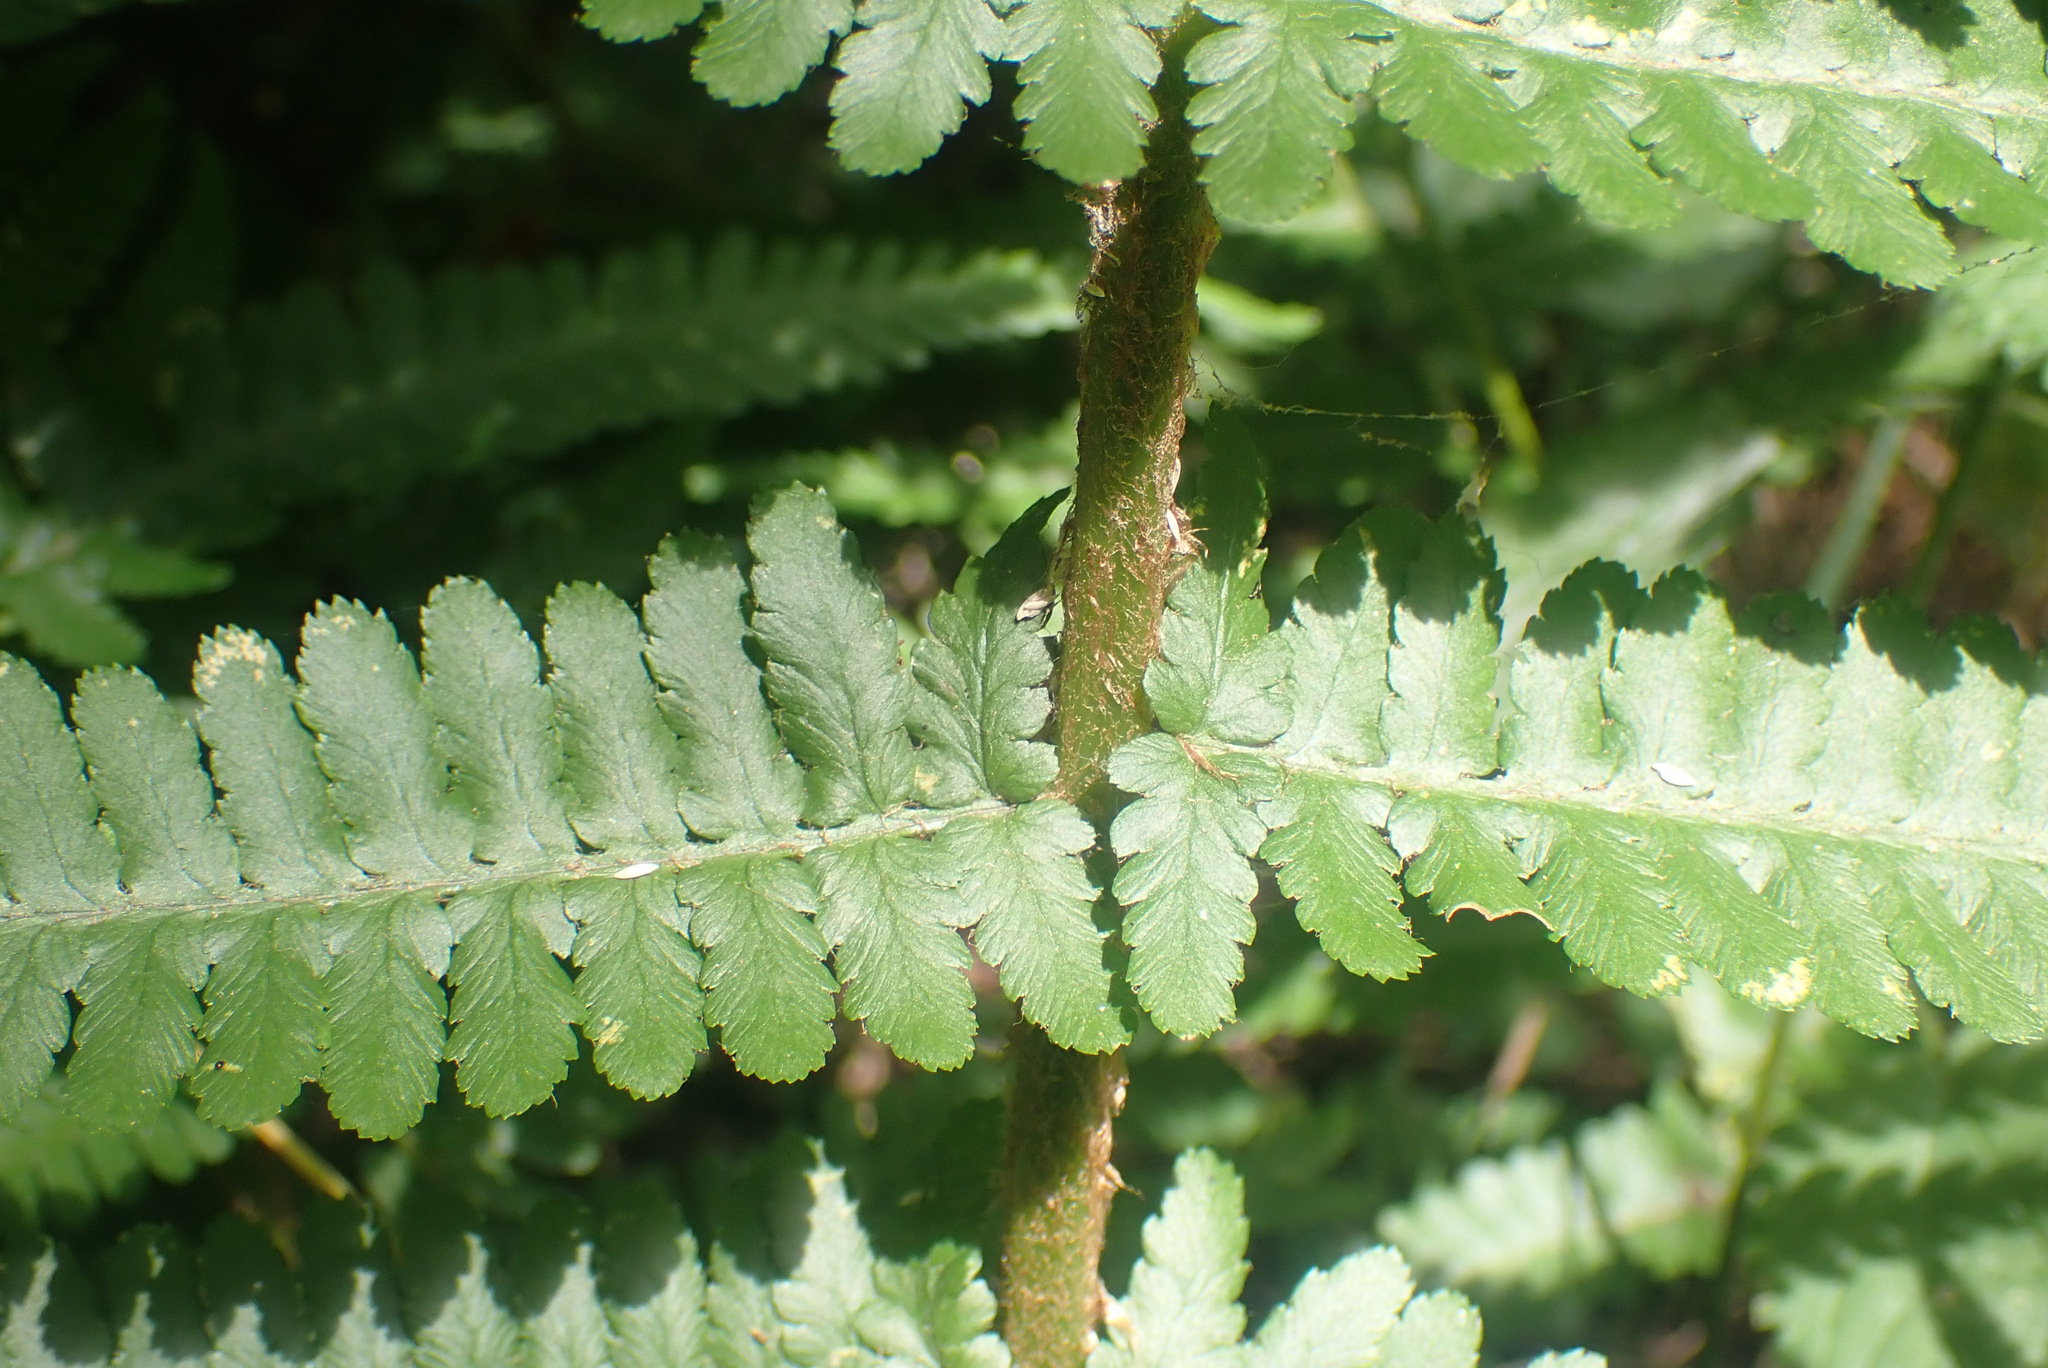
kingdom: Plantae
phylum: Tracheophyta
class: Polypodiopsida
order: Polypodiales
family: Dryopteridaceae
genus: Dryopteris
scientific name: Dryopteris filix-mas
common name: Male fern
